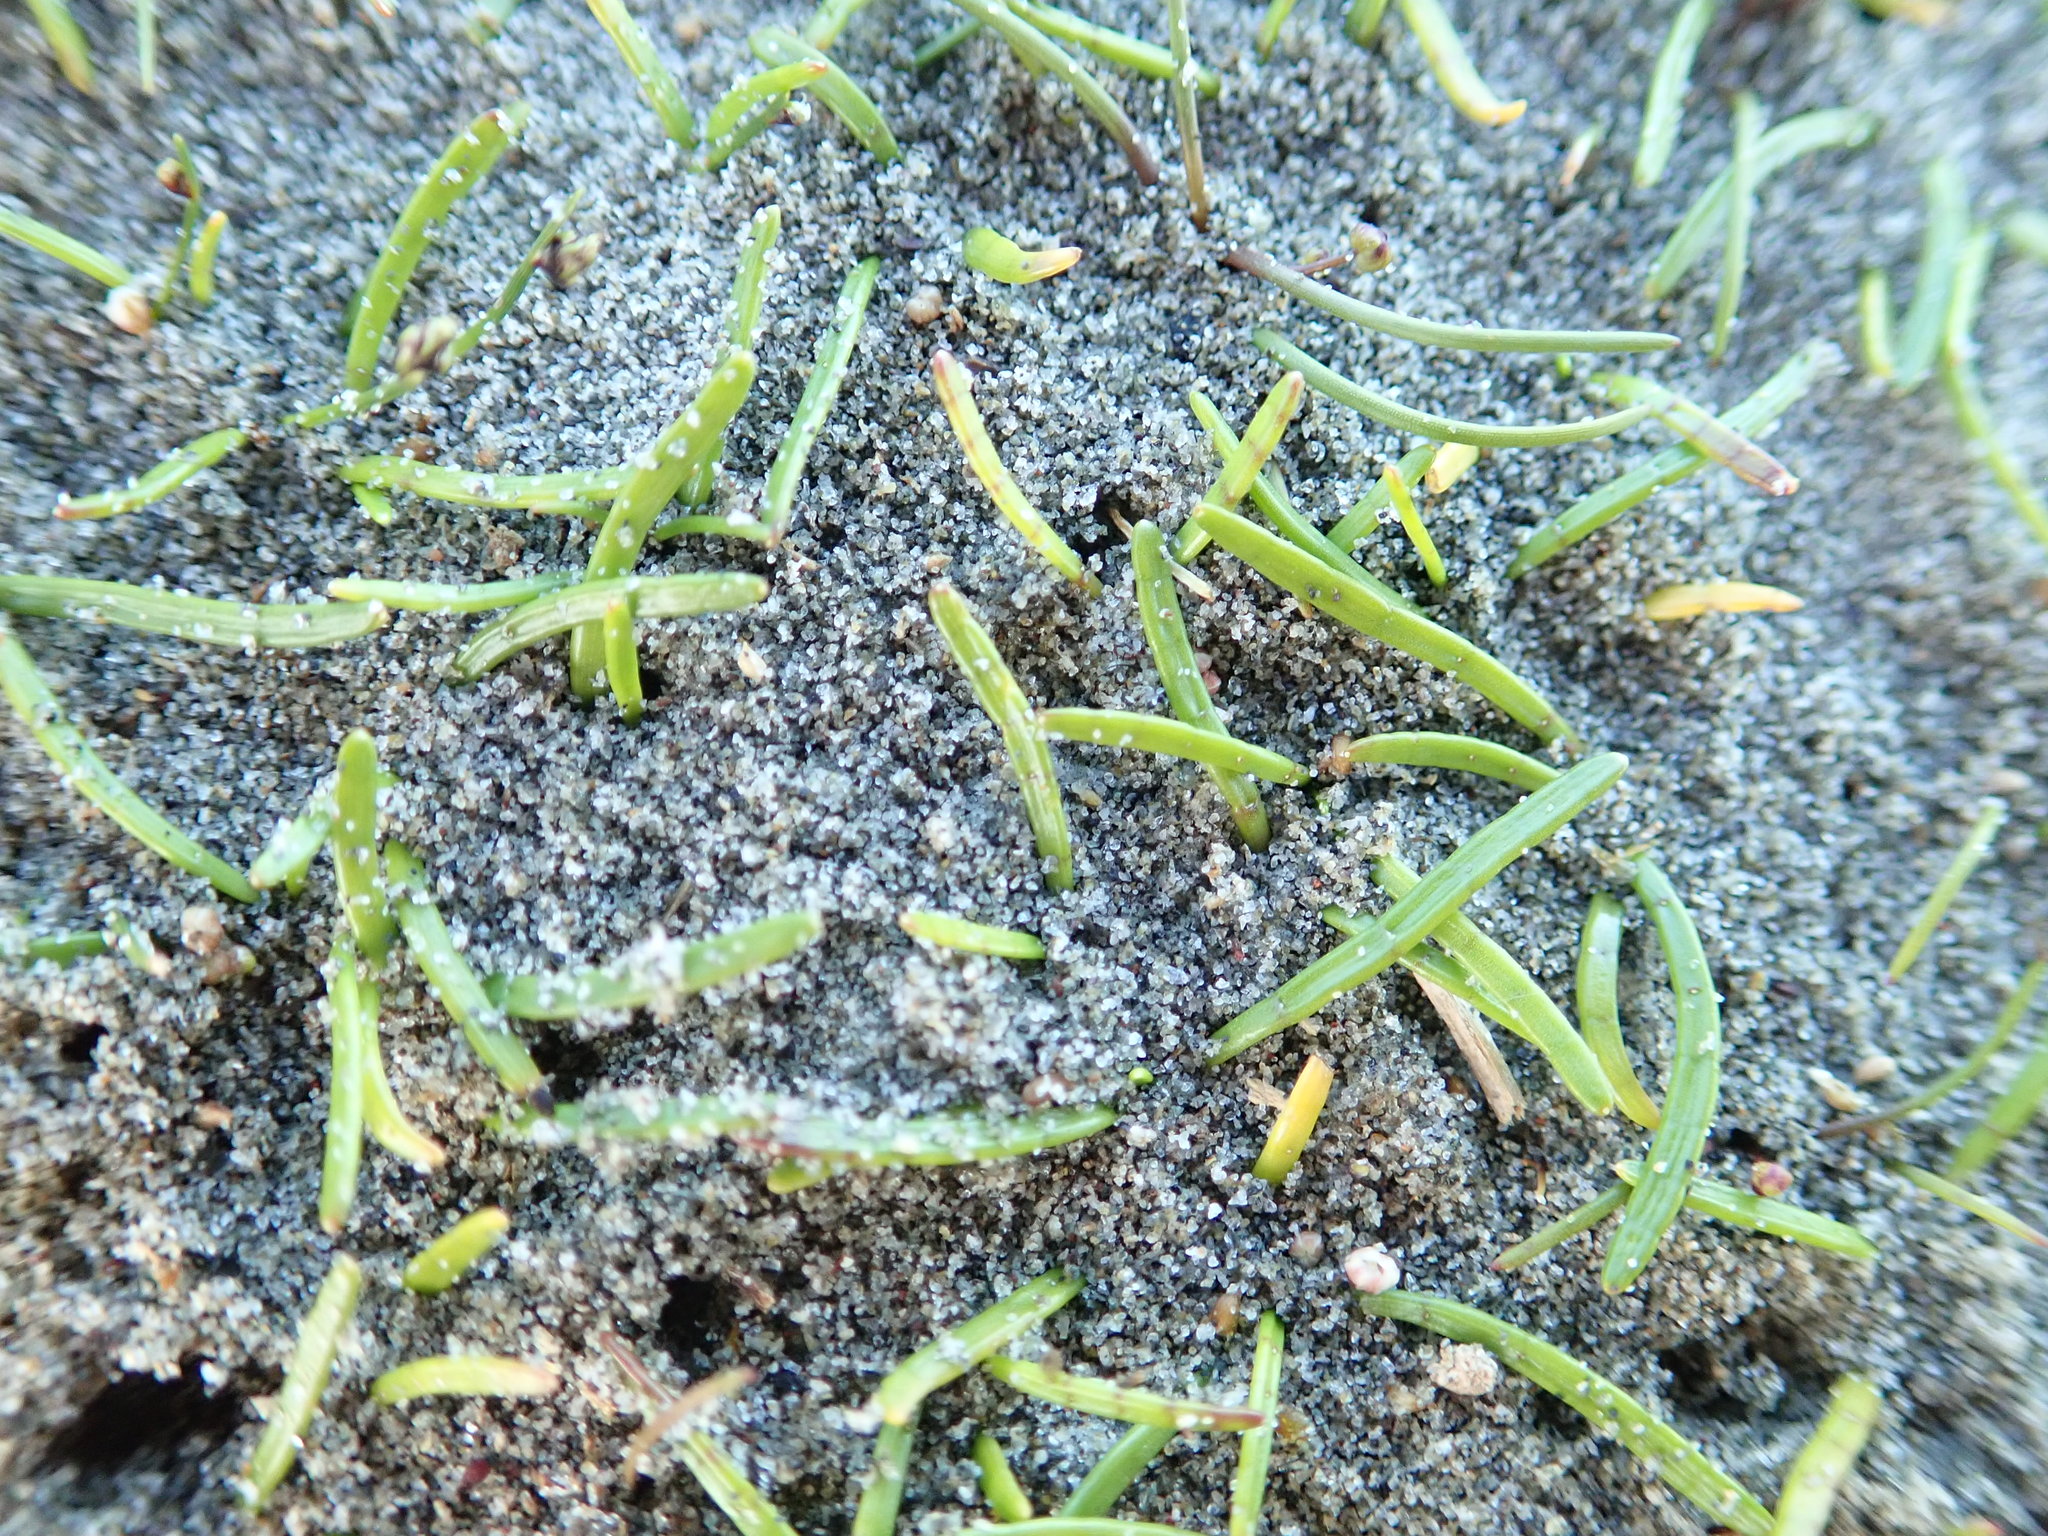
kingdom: Plantae
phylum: Tracheophyta
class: Magnoliopsida
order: Apiales
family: Apiaceae
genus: Lilaeopsis
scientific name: Lilaeopsis novae-zelandiae
